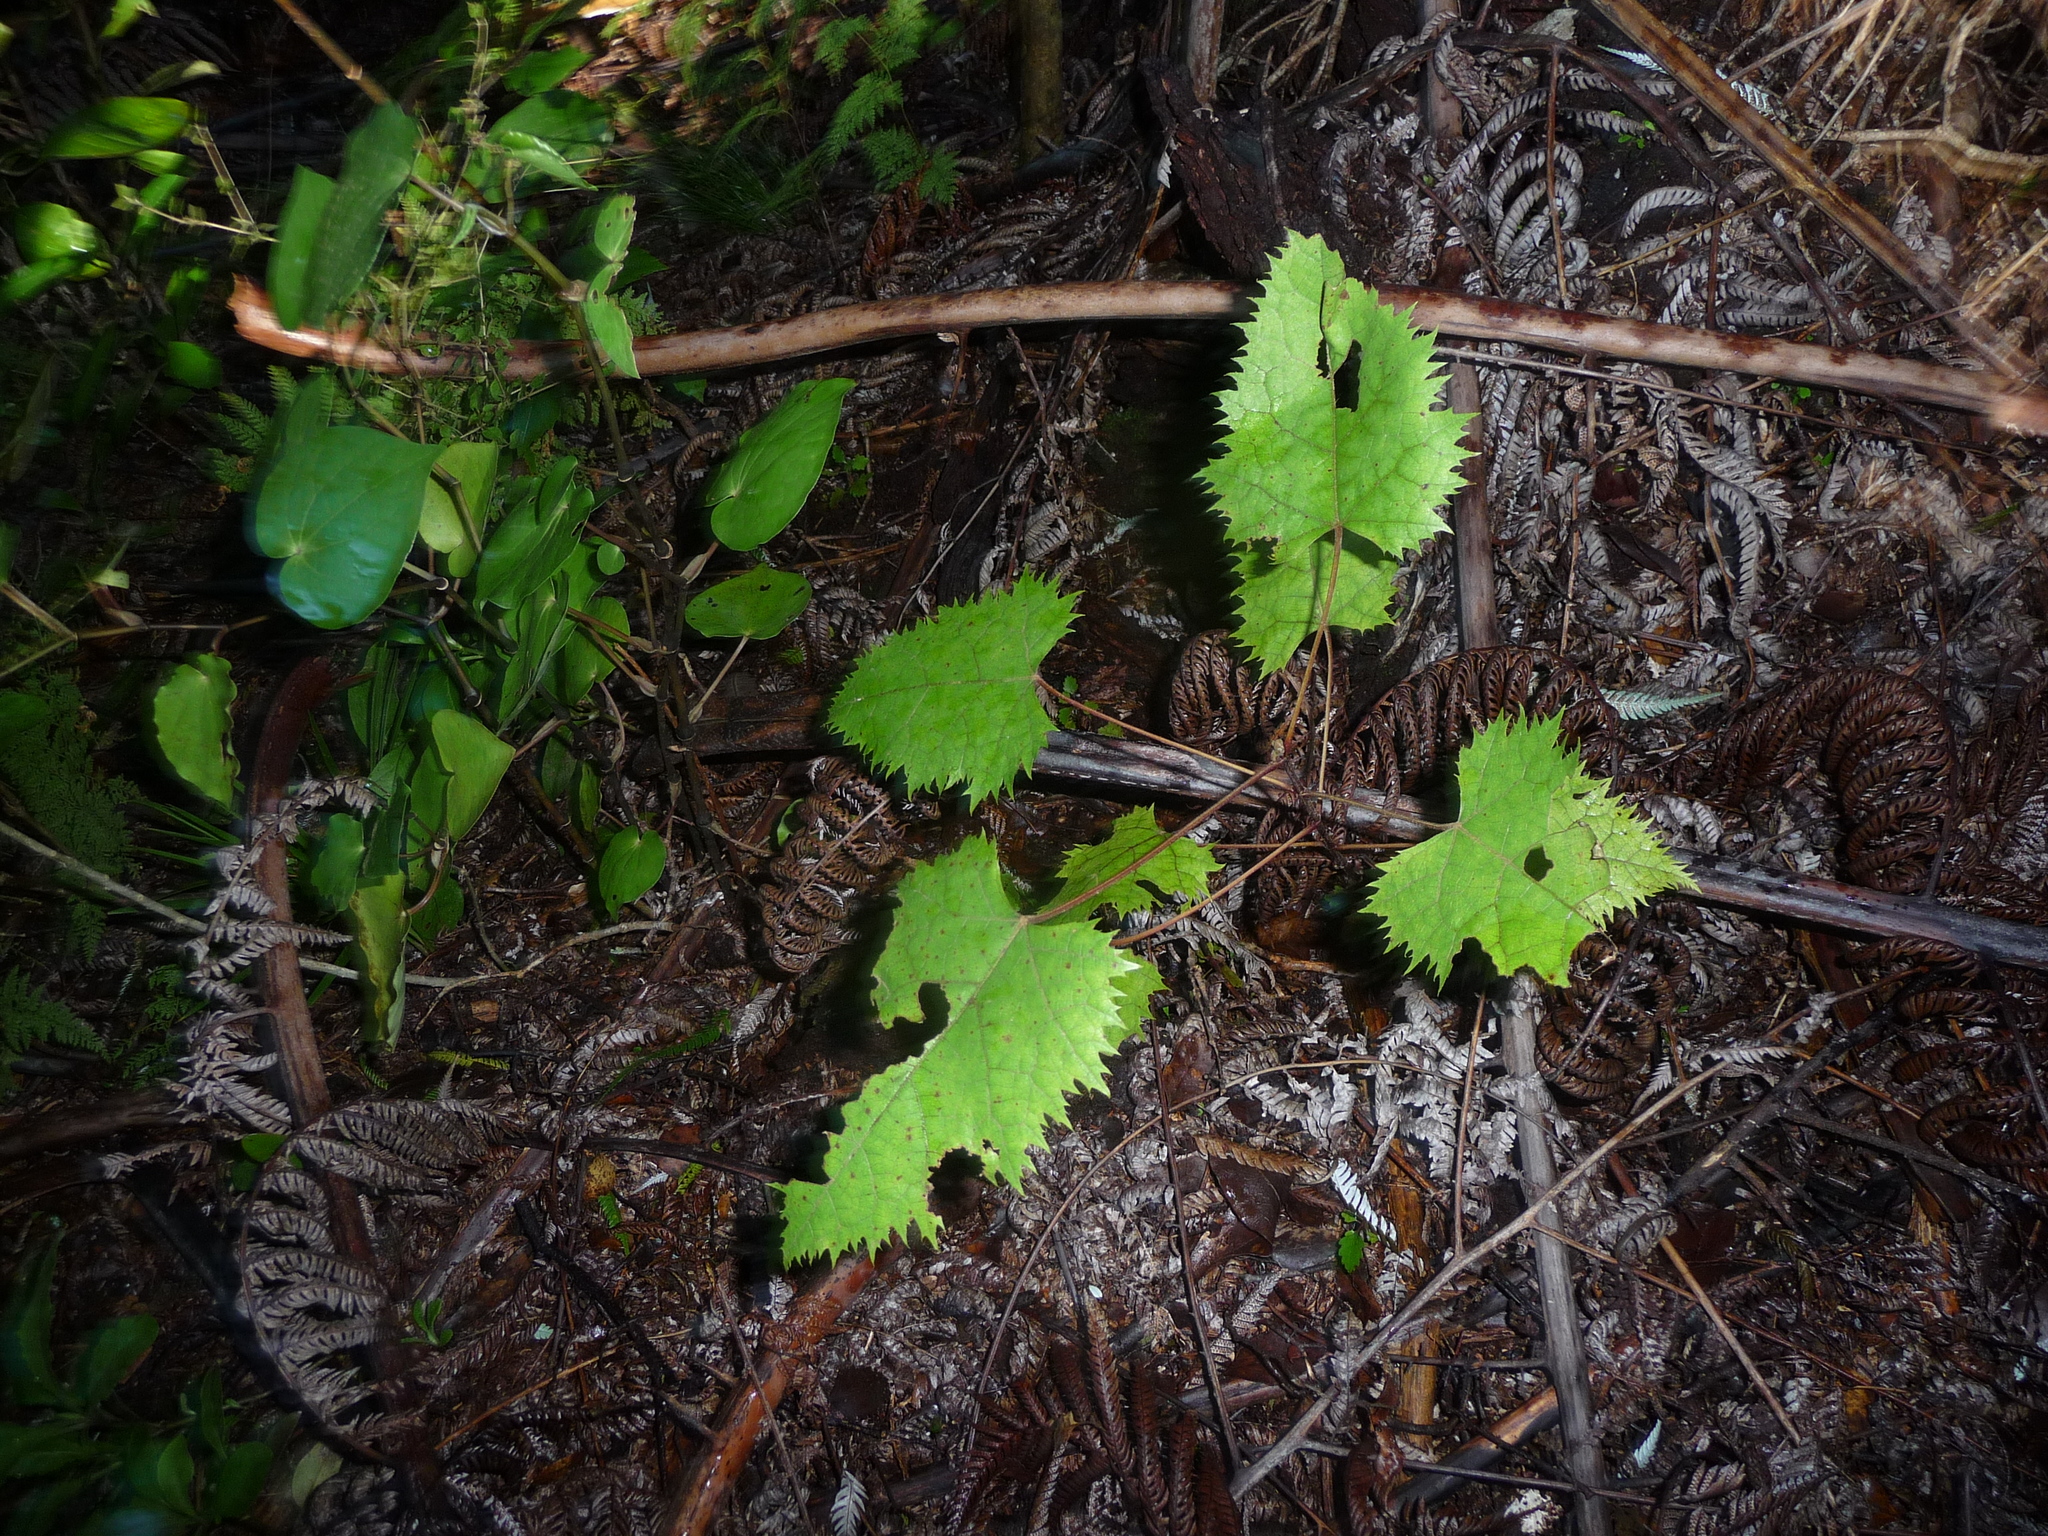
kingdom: Plantae
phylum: Tracheophyta
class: Magnoliopsida
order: Oxalidales
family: Elaeocarpaceae
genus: Aristotelia
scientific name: Aristotelia serrata
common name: New zealand wineberry
